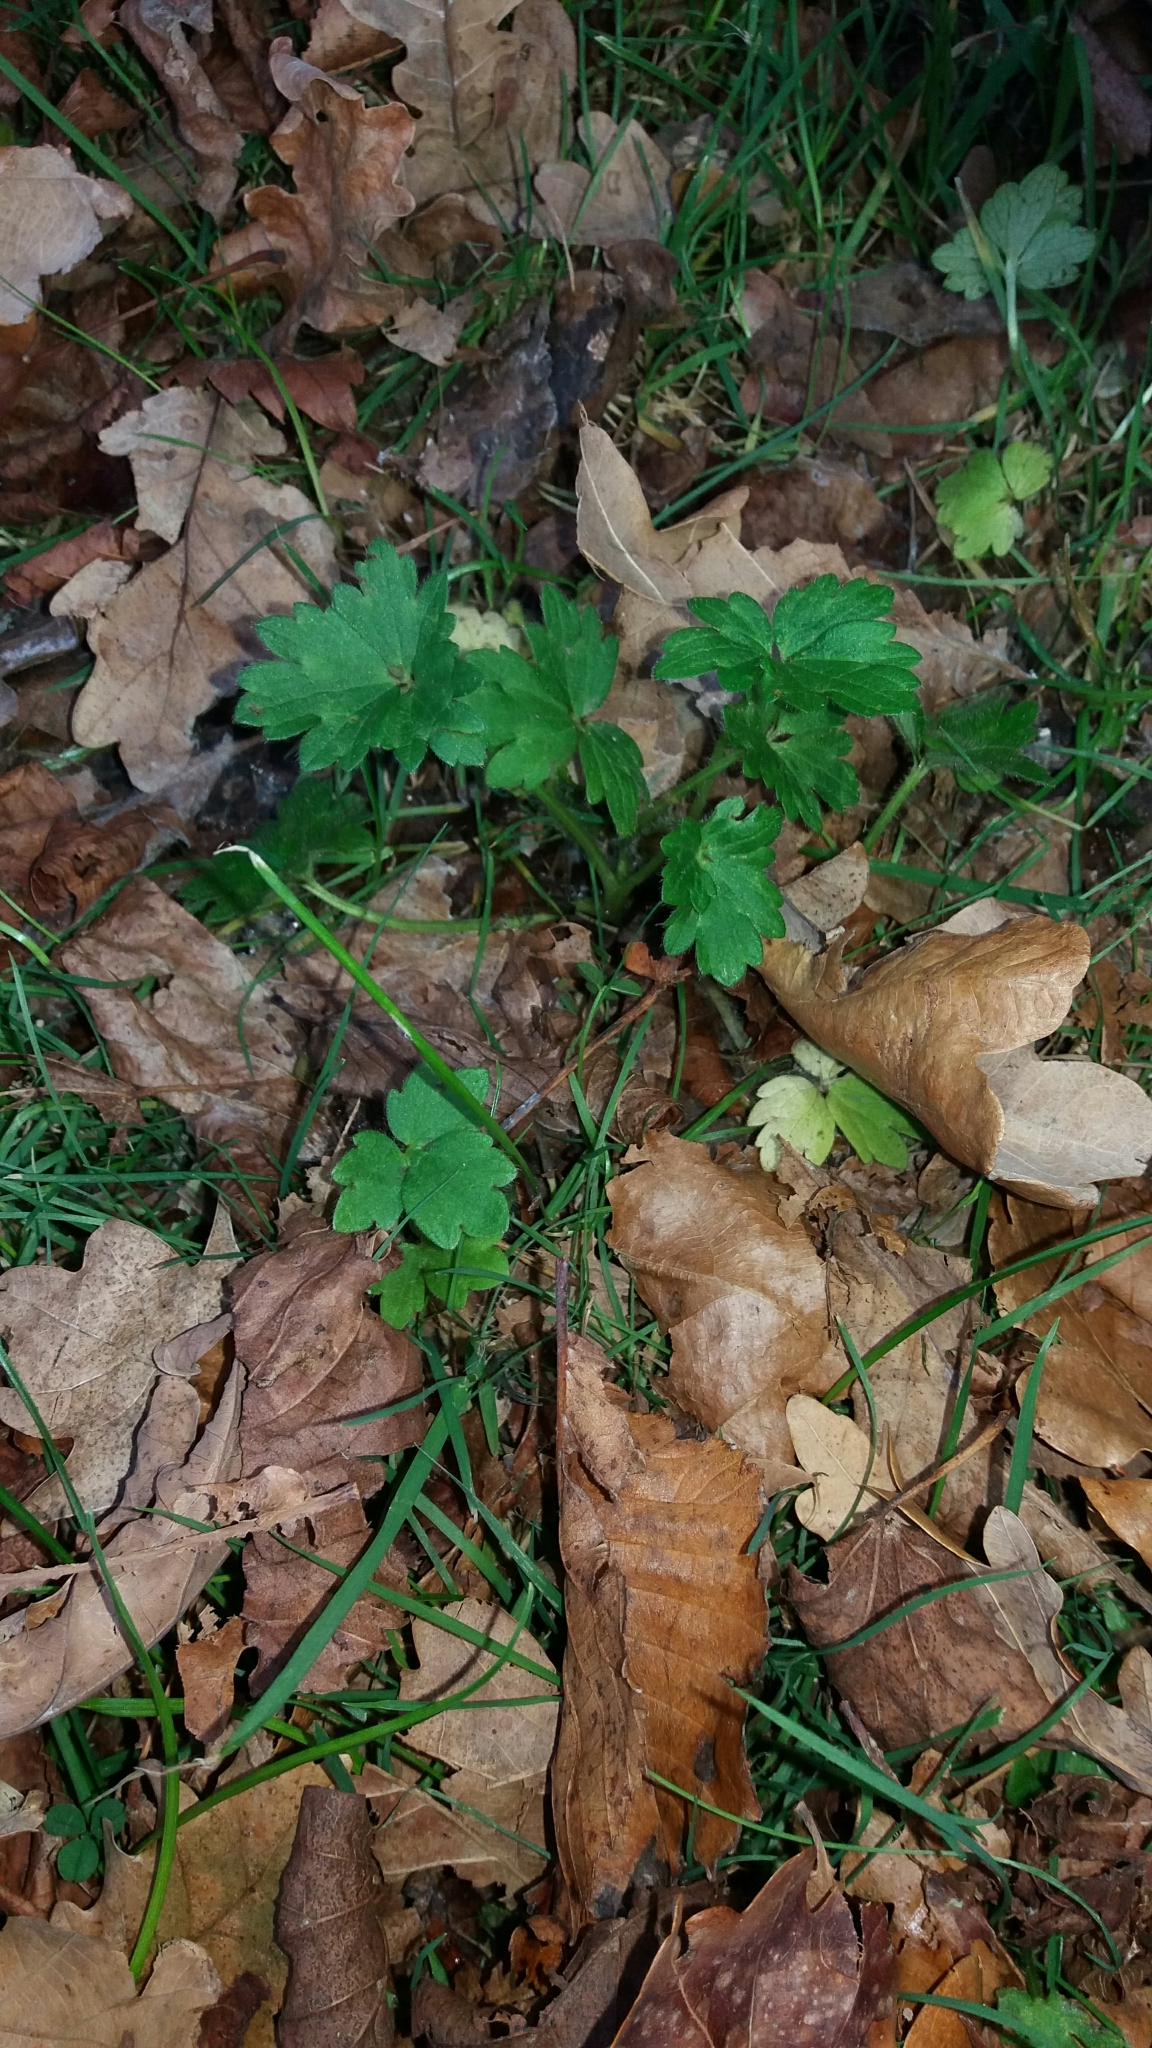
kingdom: Plantae
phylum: Tracheophyta
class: Magnoliopsida
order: Ranunculales
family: Ranunculaceae
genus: Ranunculus
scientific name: Ranunculus repens
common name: Creeping buttercup
